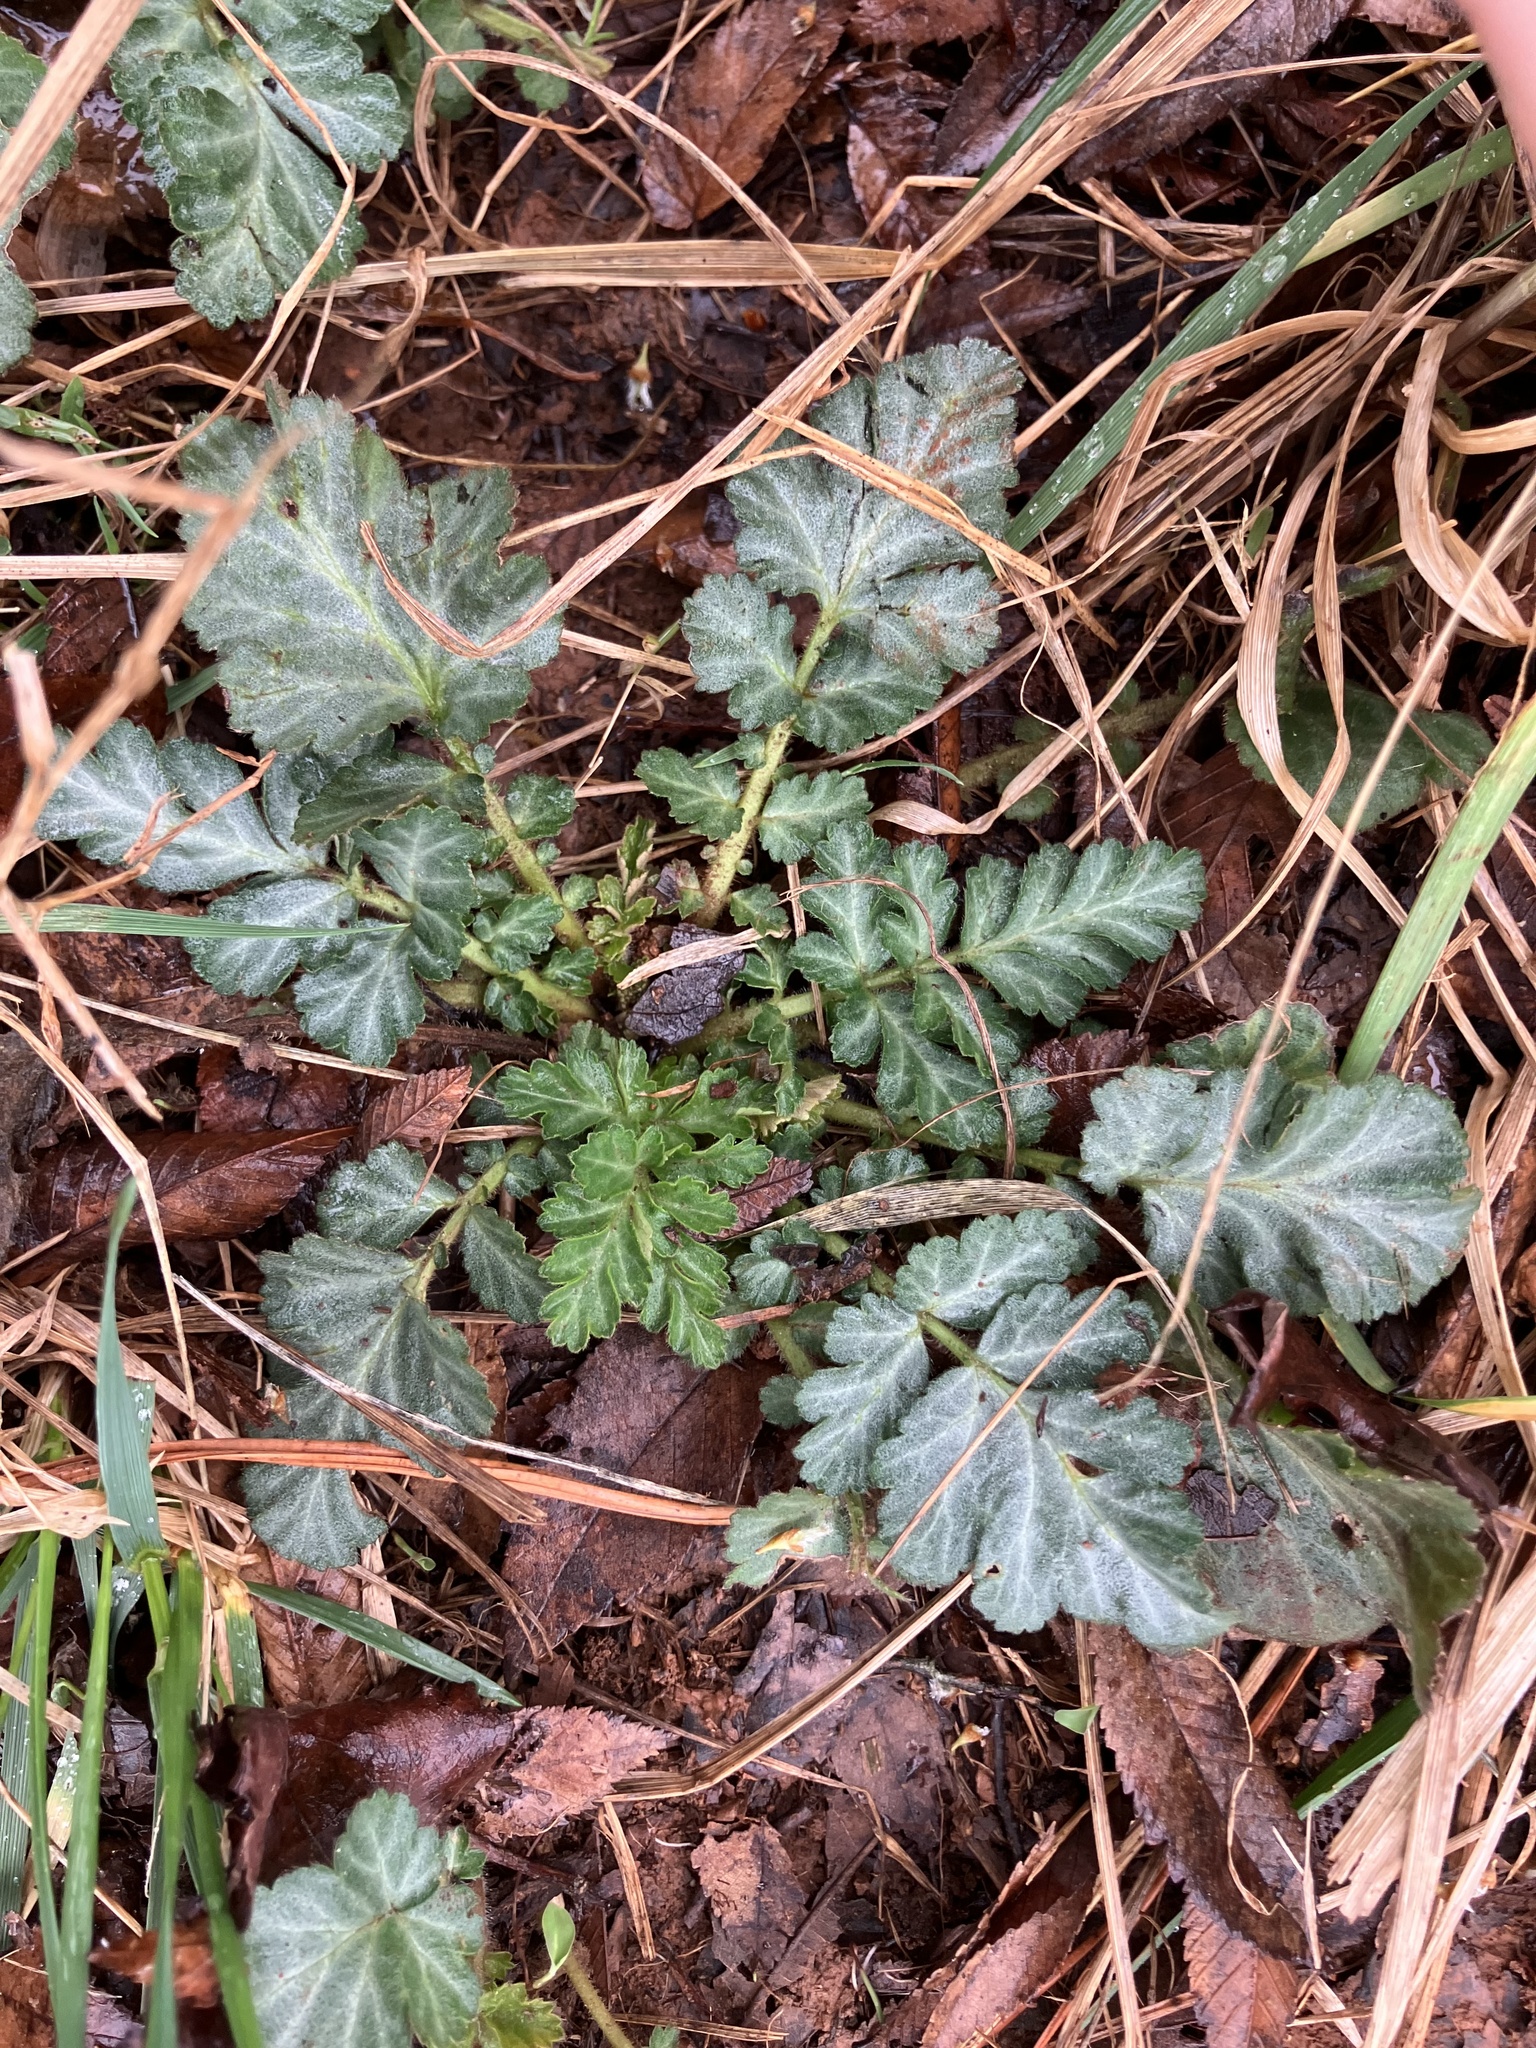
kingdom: Plantae
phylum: Tracheophyta
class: Magnoliopsida
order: Rosales
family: Rosaceae
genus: Geum
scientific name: Geum canadense
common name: White avens
